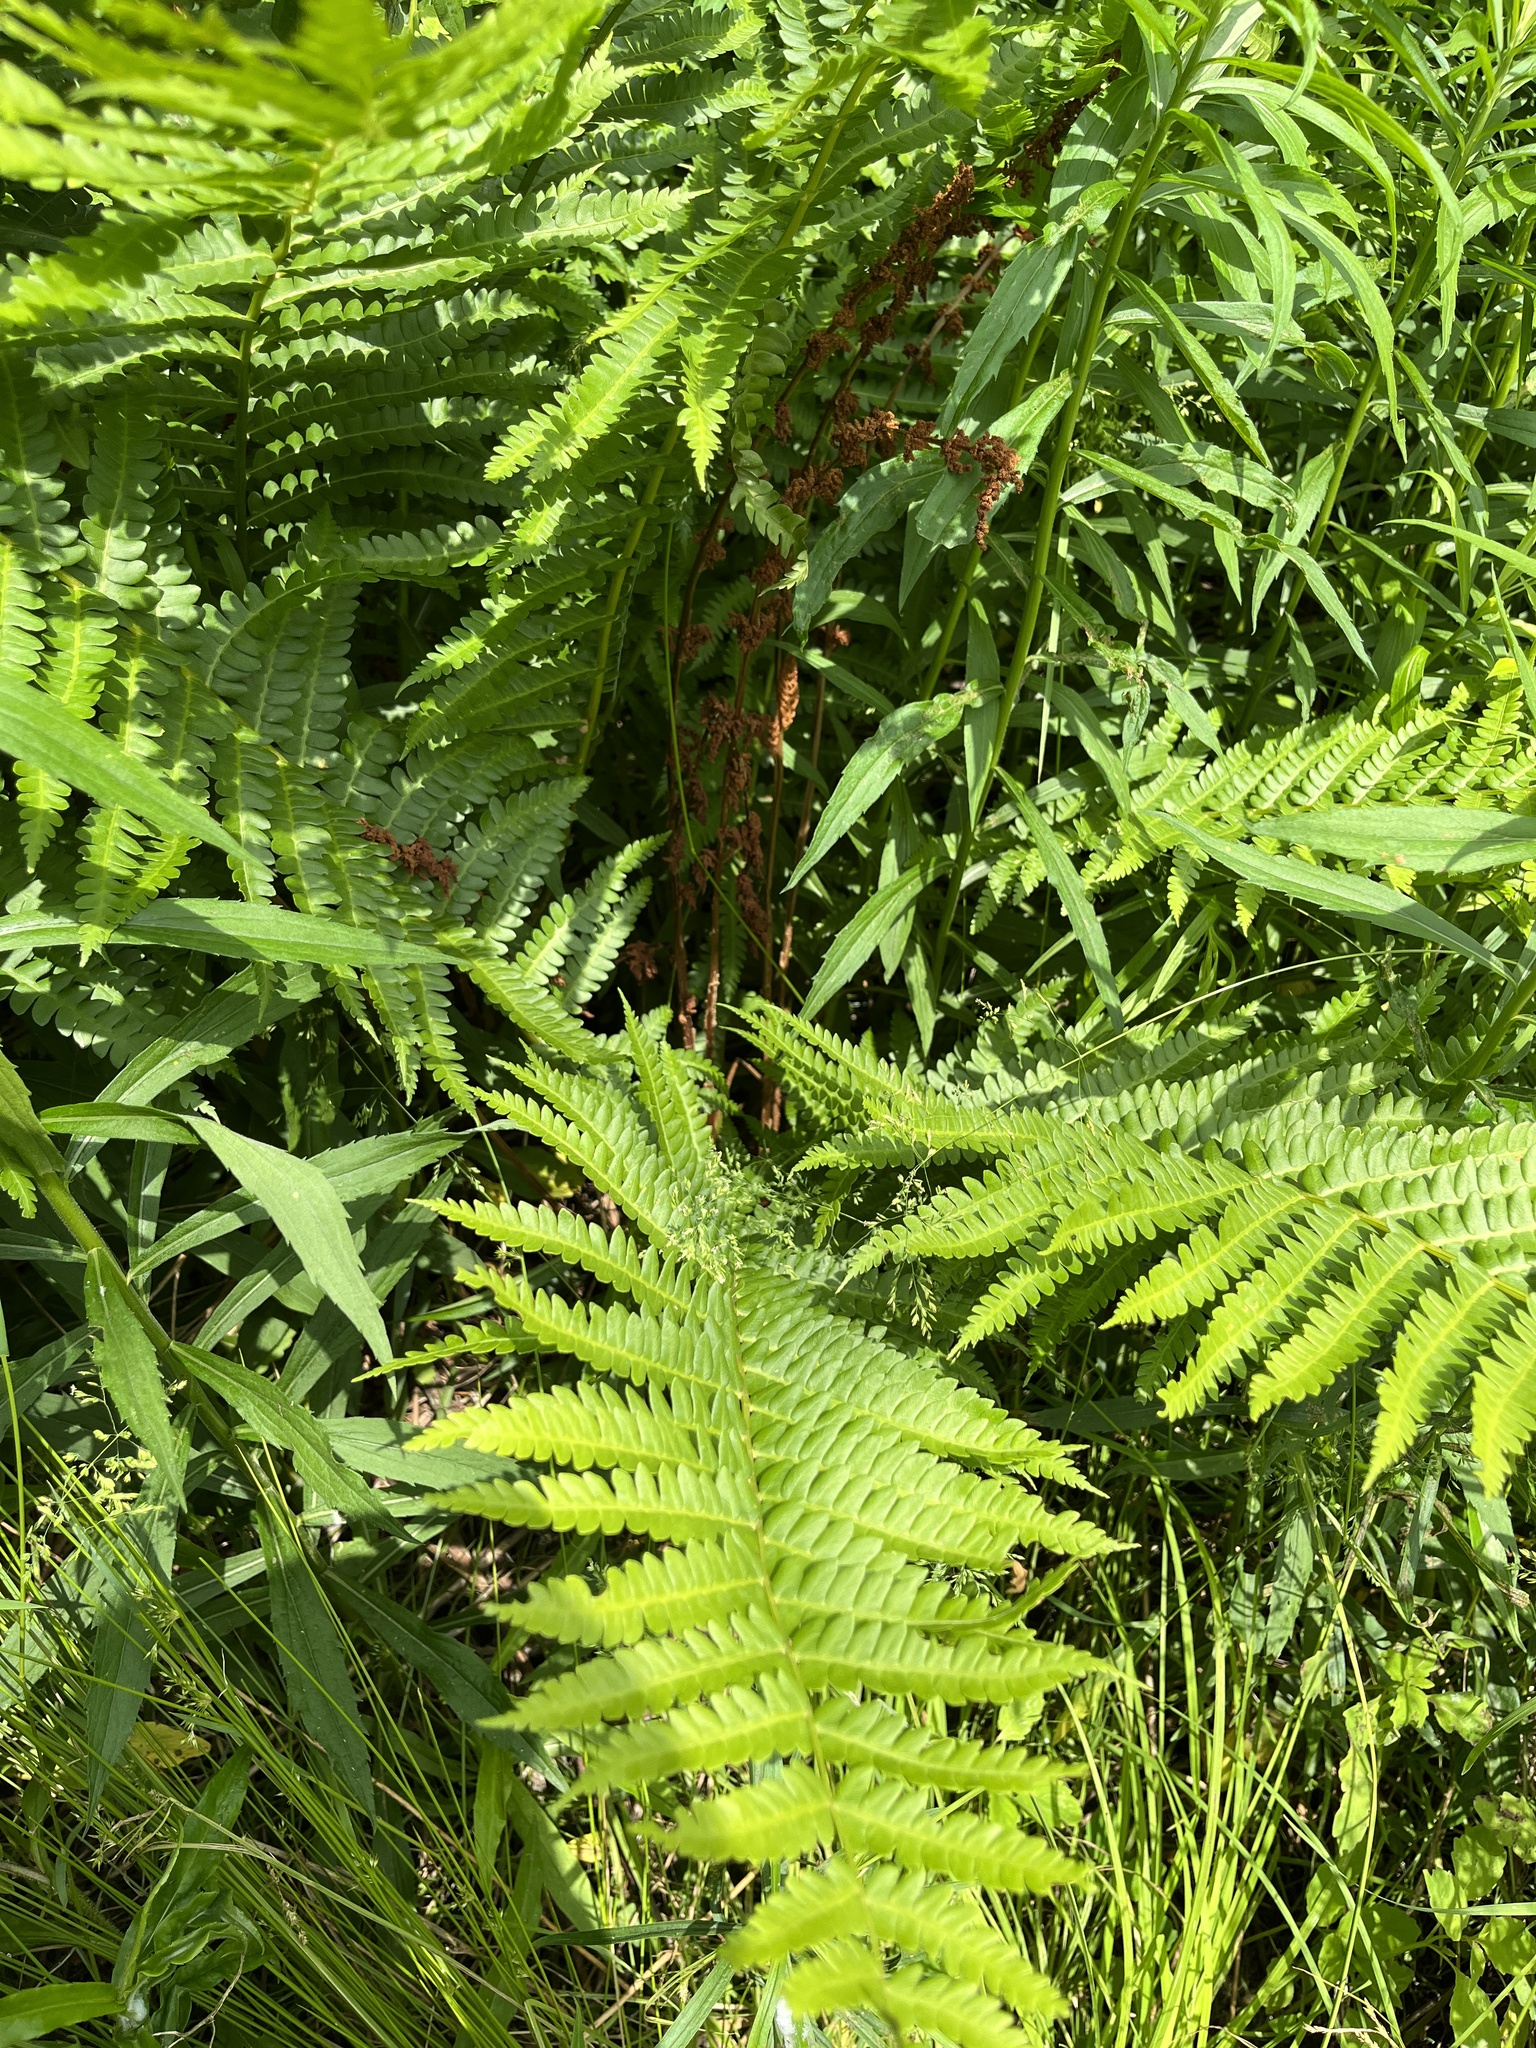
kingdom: Plantae
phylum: Tracheophyta
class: Polypodiopsida
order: Osmundales
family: Osmundaceae
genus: Osmundastrum
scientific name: Osmundastrum cinnamomeum
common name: Cinnamon fern
